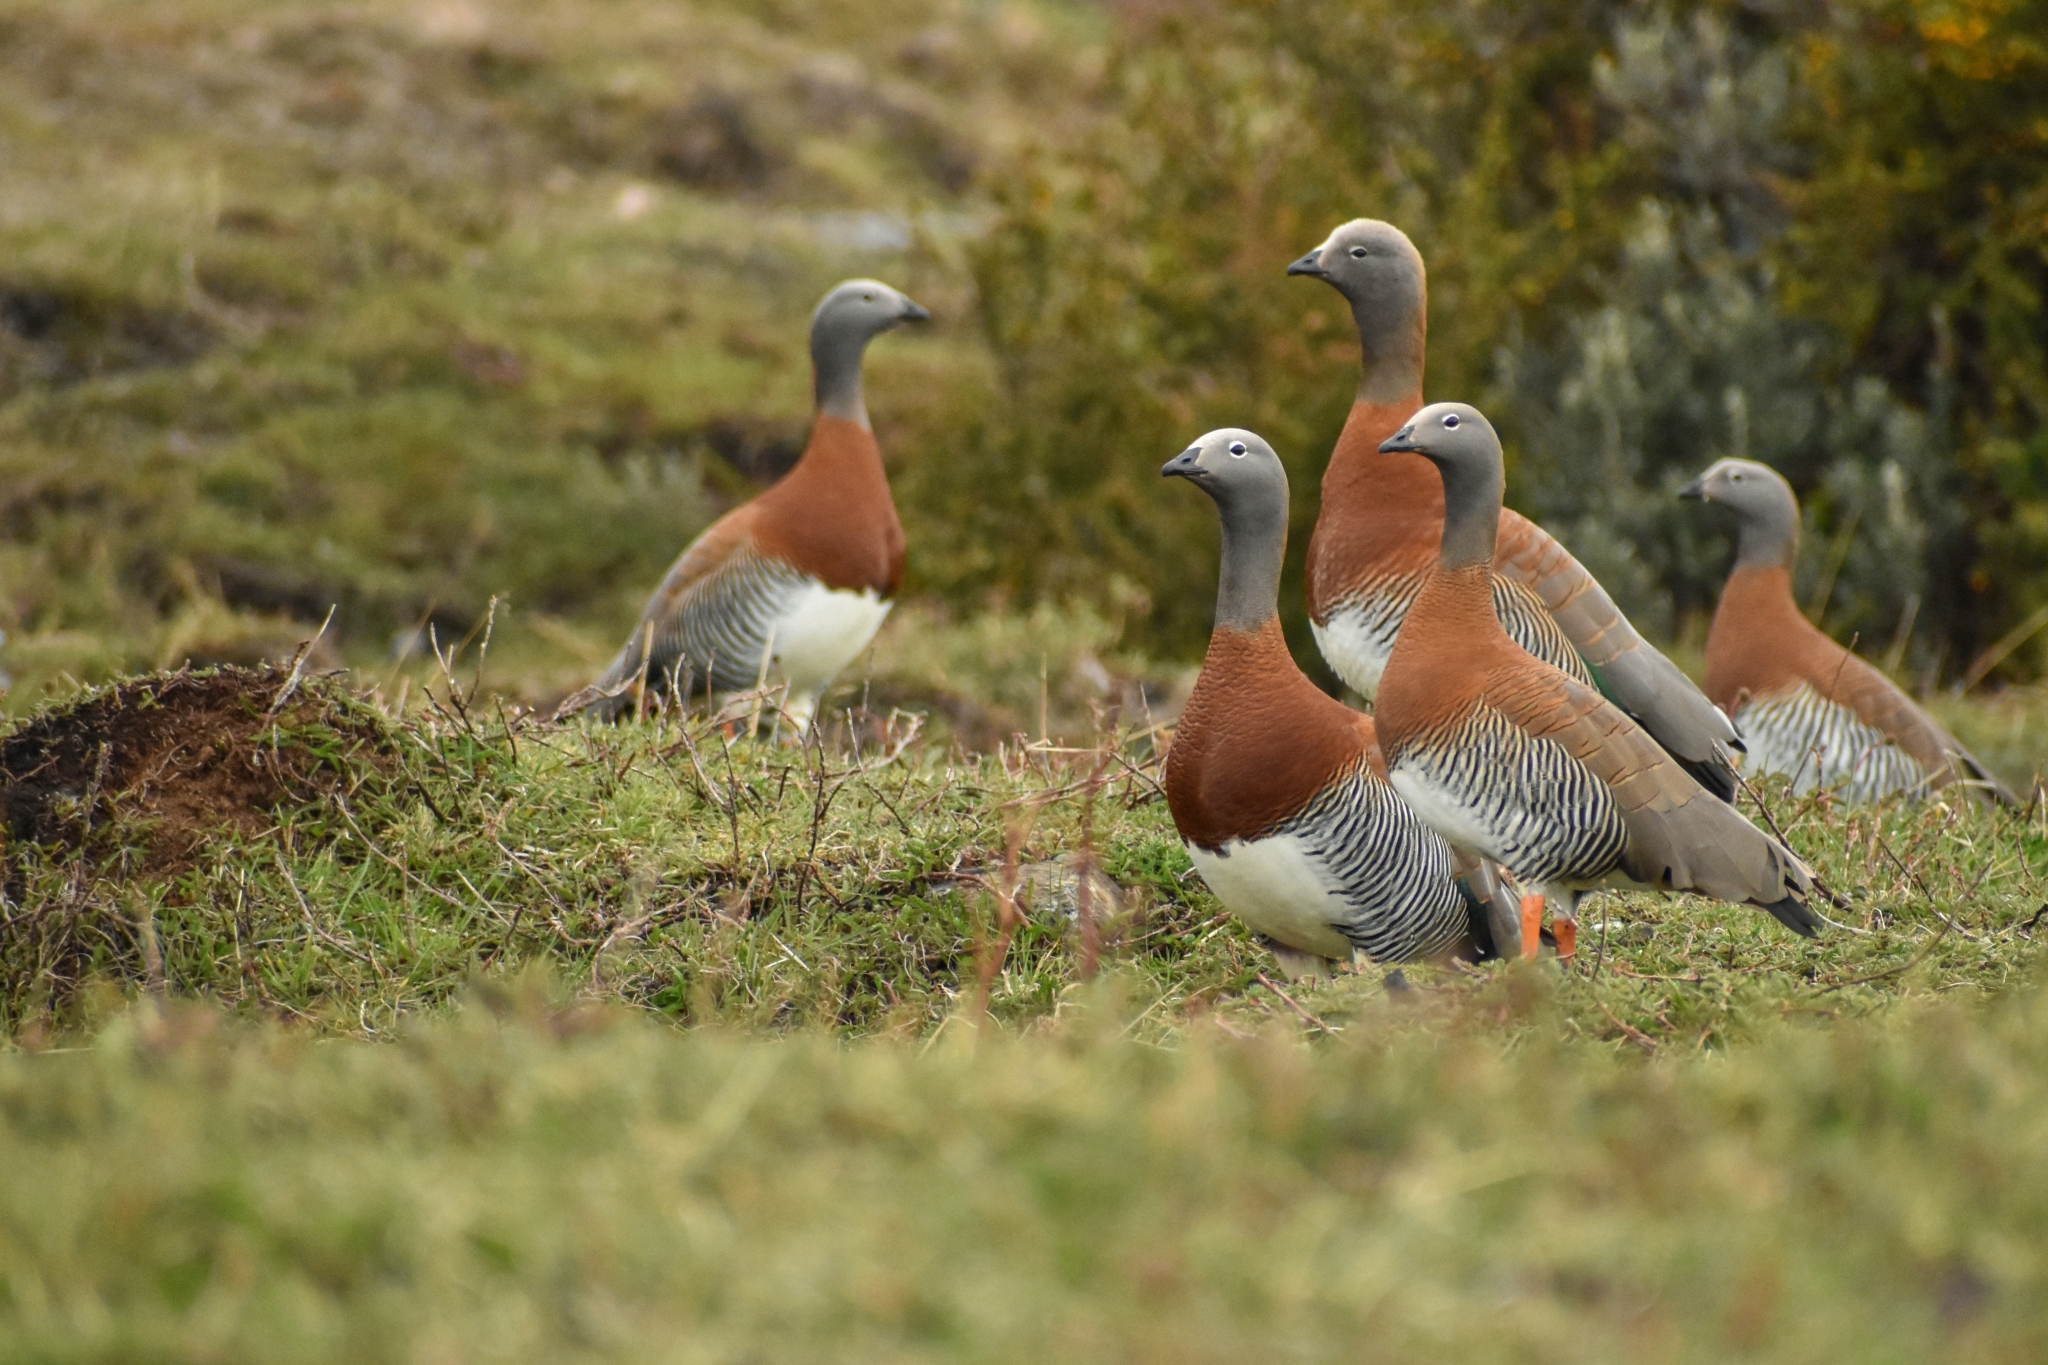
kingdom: Animalia
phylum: Chordata
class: Aves
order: Anseriformes
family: Anatidae
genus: Chloephaga
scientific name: Chloephaga poliocephala
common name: Ashy-headed goose
